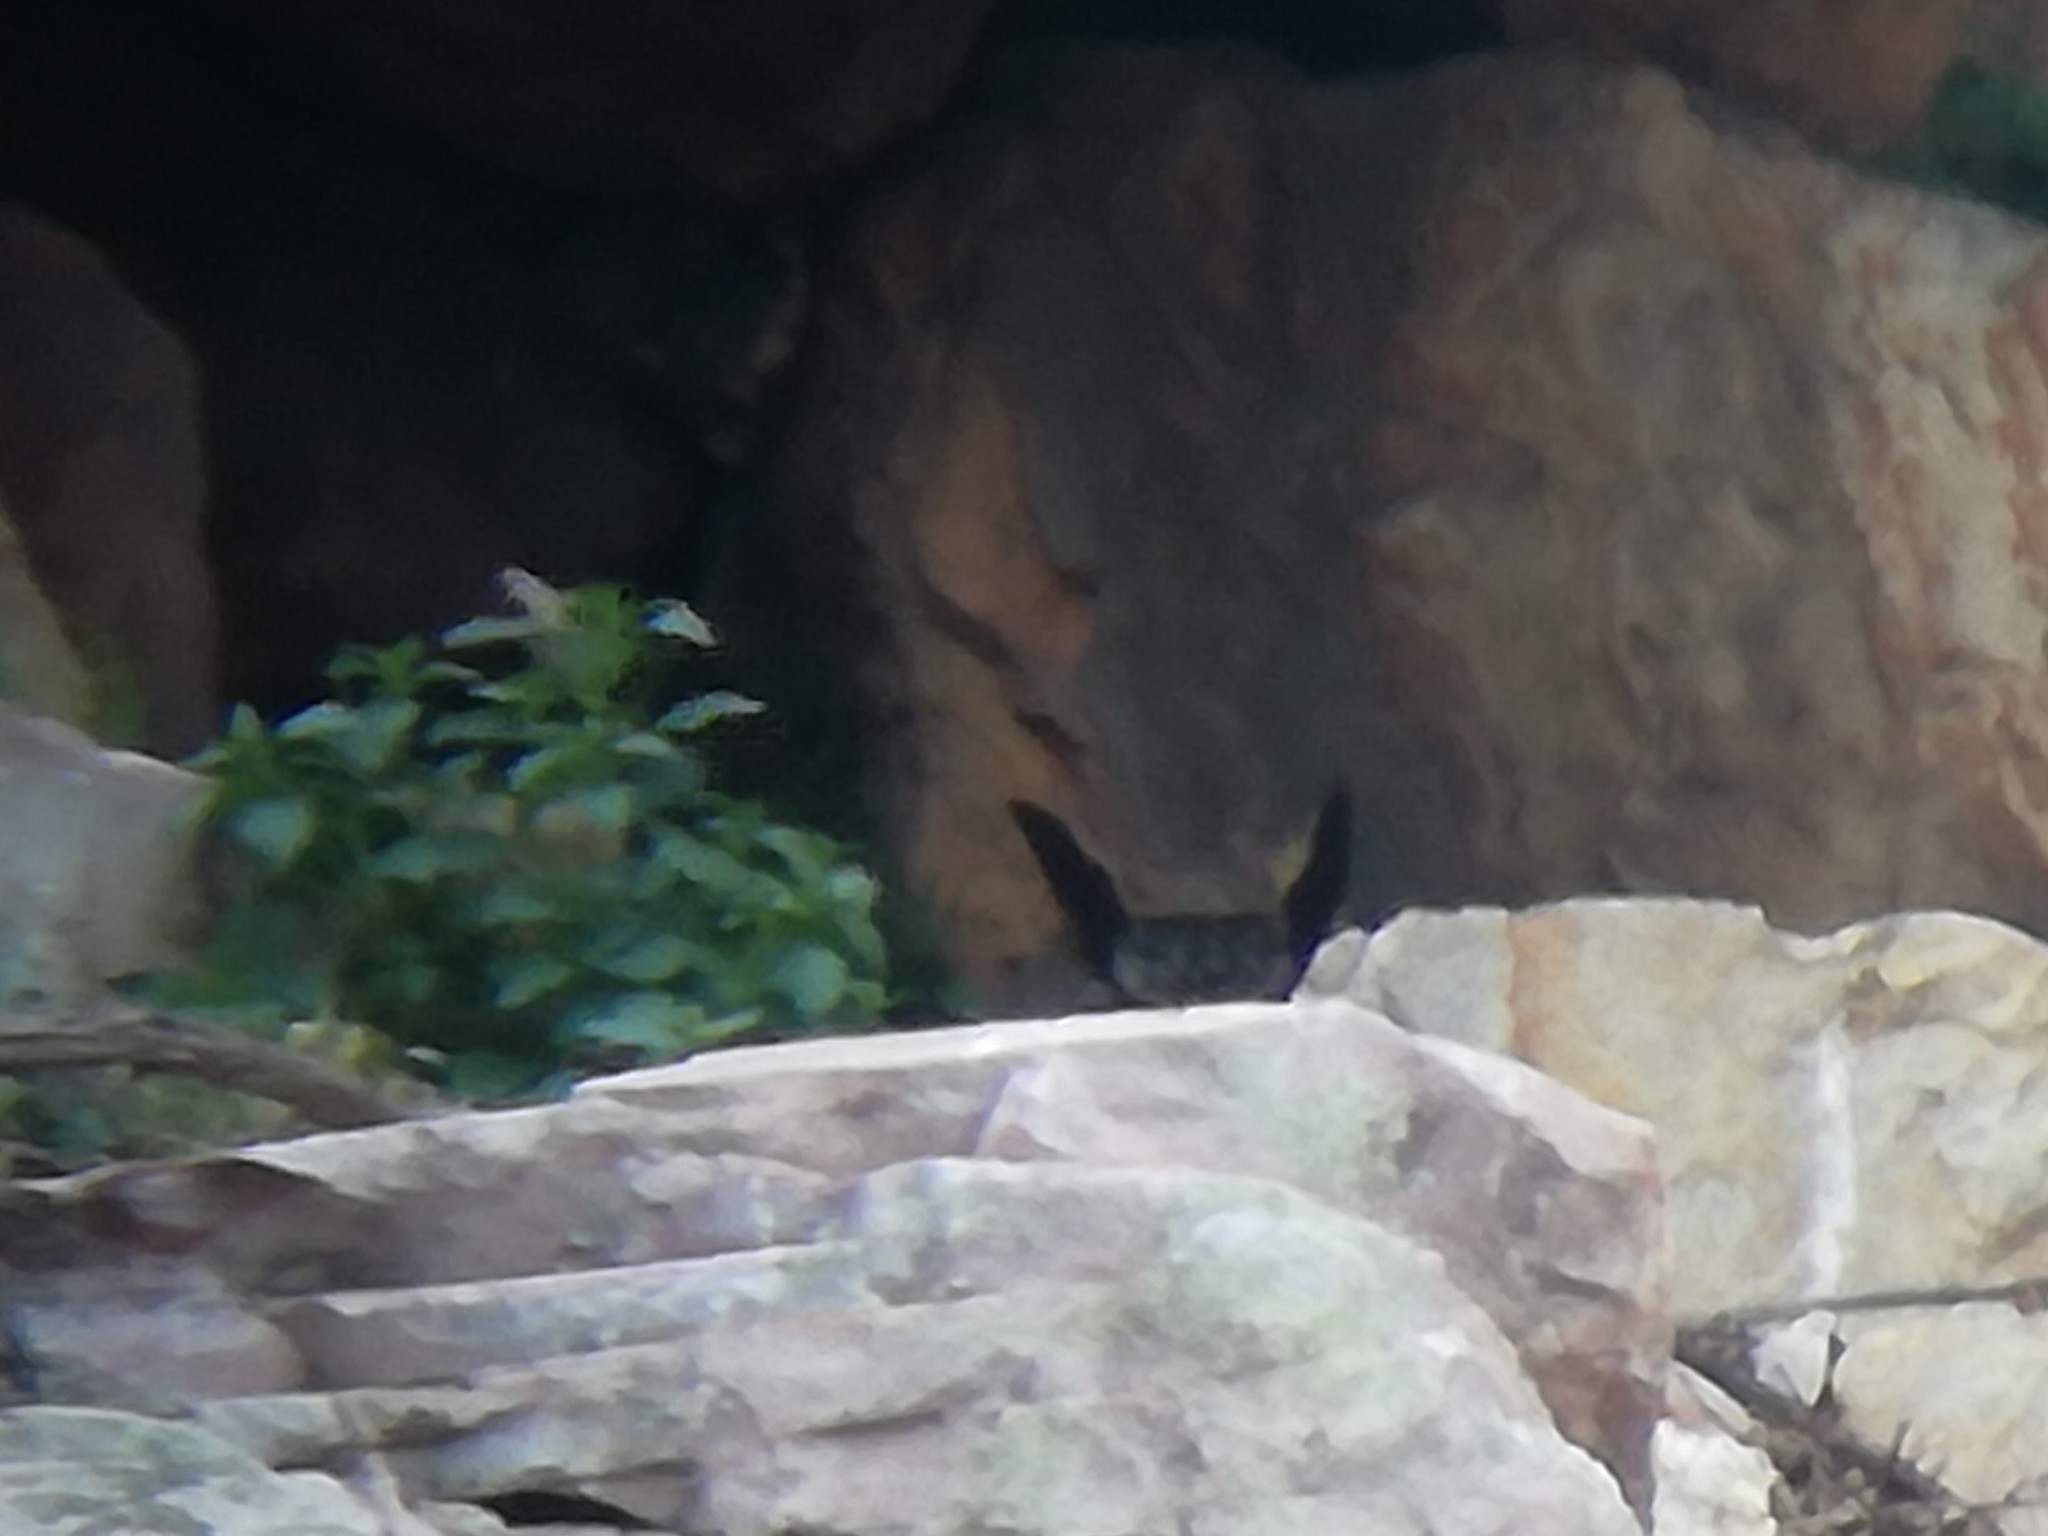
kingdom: Animalia
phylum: Chordata
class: Aves
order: Strigiformes
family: Strigidae
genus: Bubo
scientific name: Bubo bubo
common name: Eurasian eagle-owl
